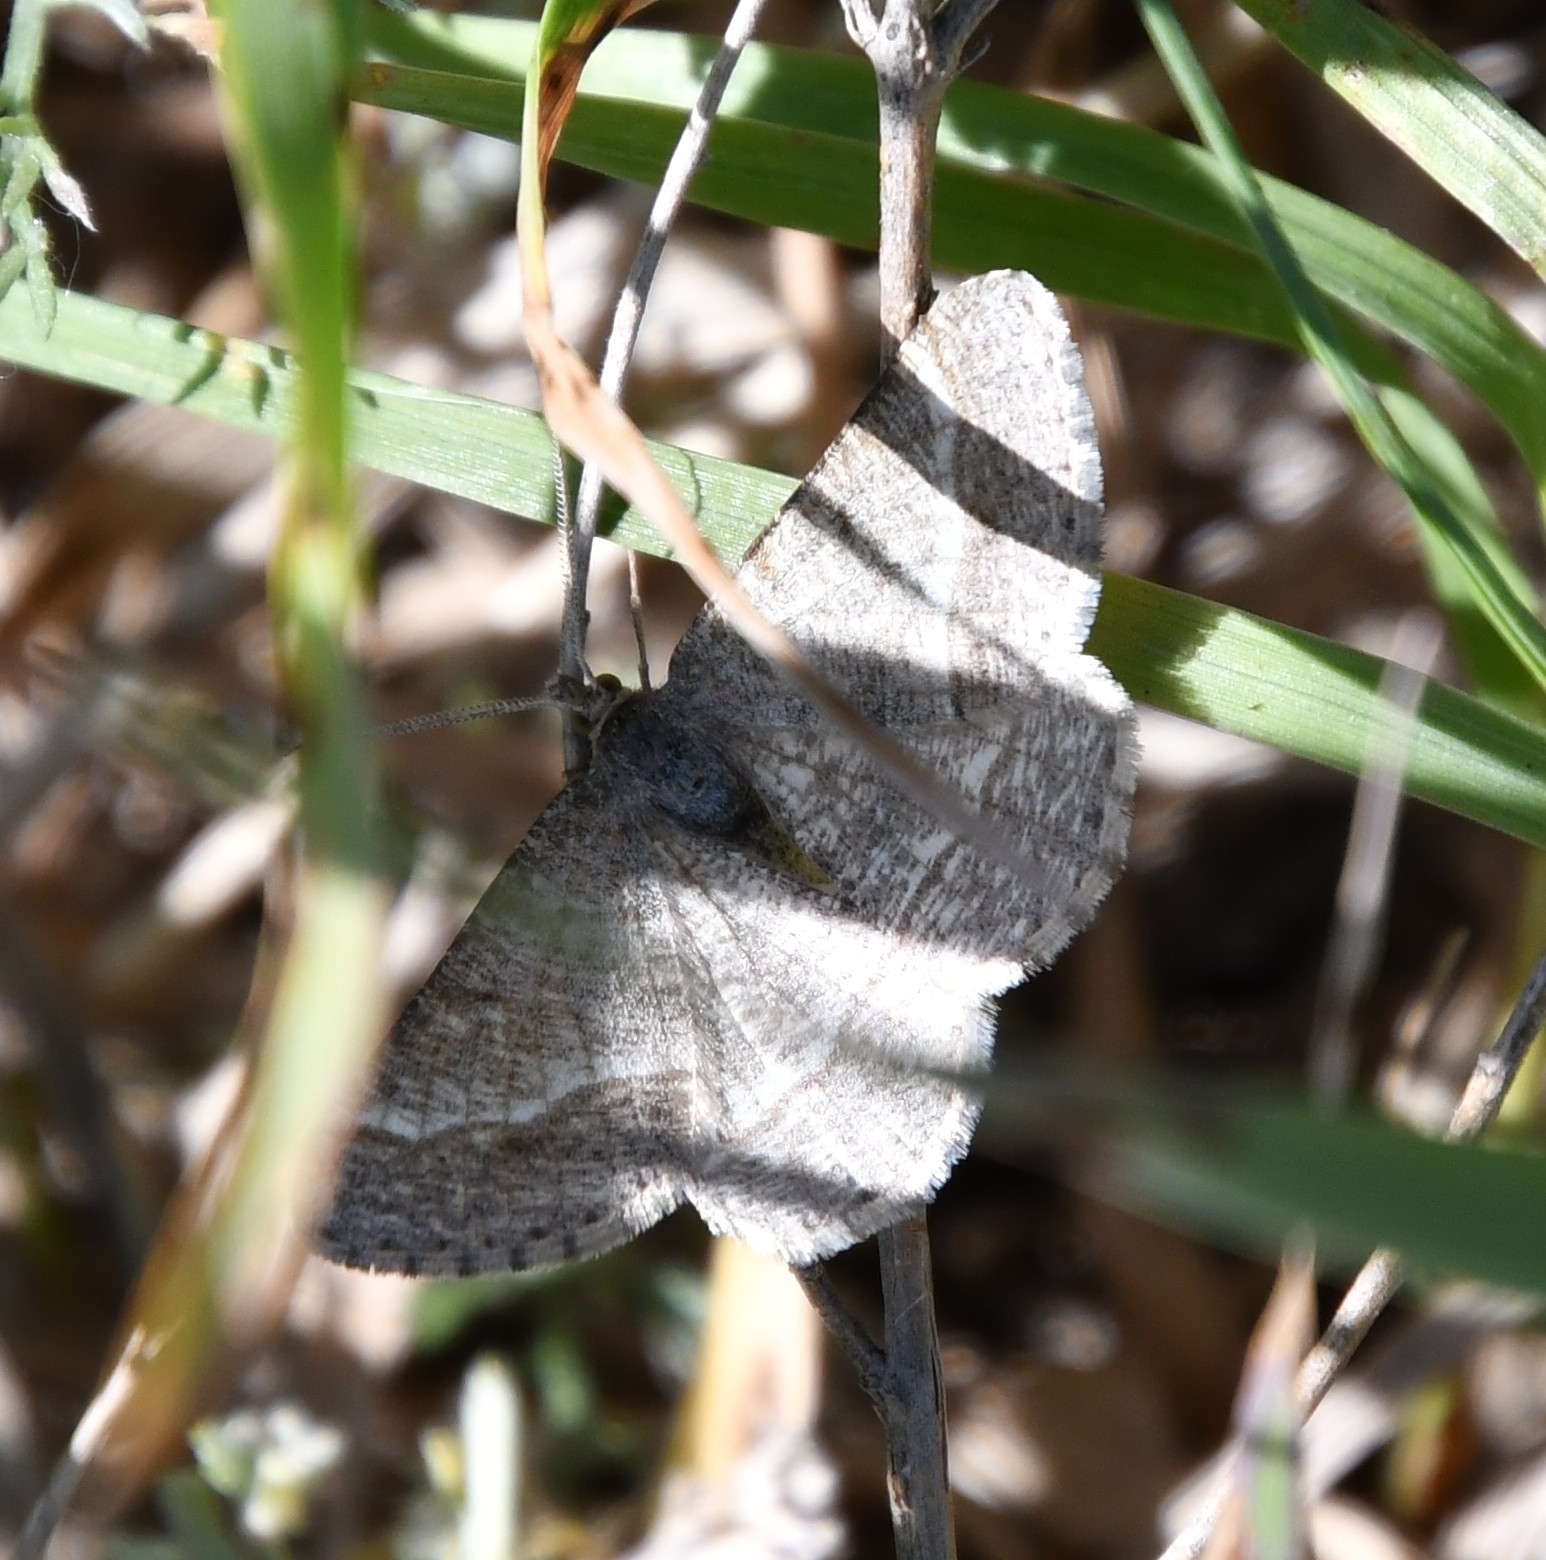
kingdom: Animalia
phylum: Arthropoda
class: Insecta
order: Lepidoptera
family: Geometridae
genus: Tephrina
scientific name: Tephrina murinaria
